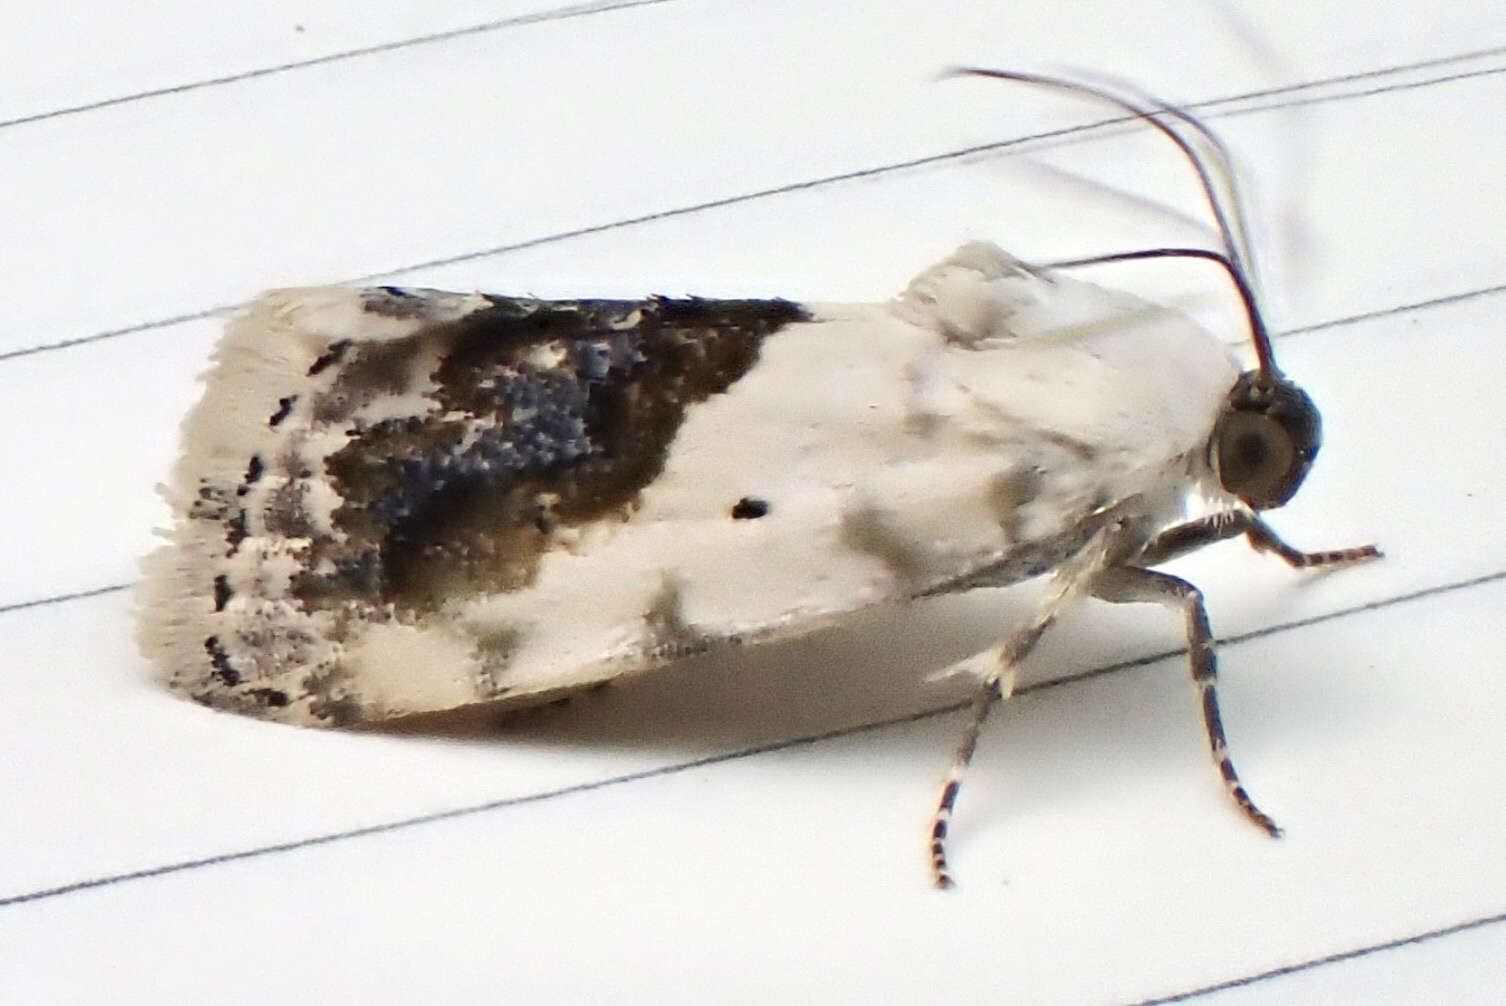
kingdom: Animalia
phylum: Arthropoda
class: Insecta
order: Lepidoptera
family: Noctuidae
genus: Acontia
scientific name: Acontia erastrioides
